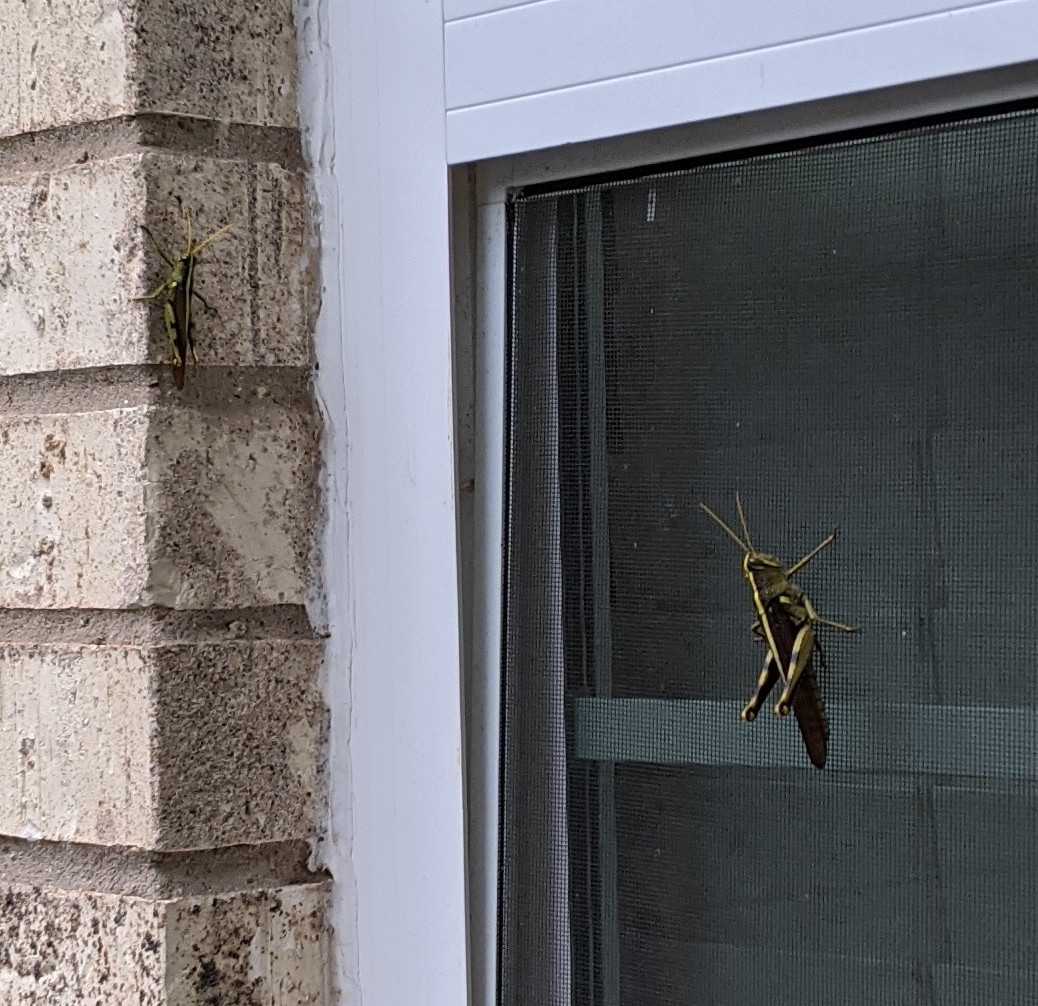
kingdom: Animalia
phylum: Arthropoda
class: Insecta
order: Orthoptera
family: Acrididae
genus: Schistocerca
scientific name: Schistocerca obscura
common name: Obscure bird grasshopper
